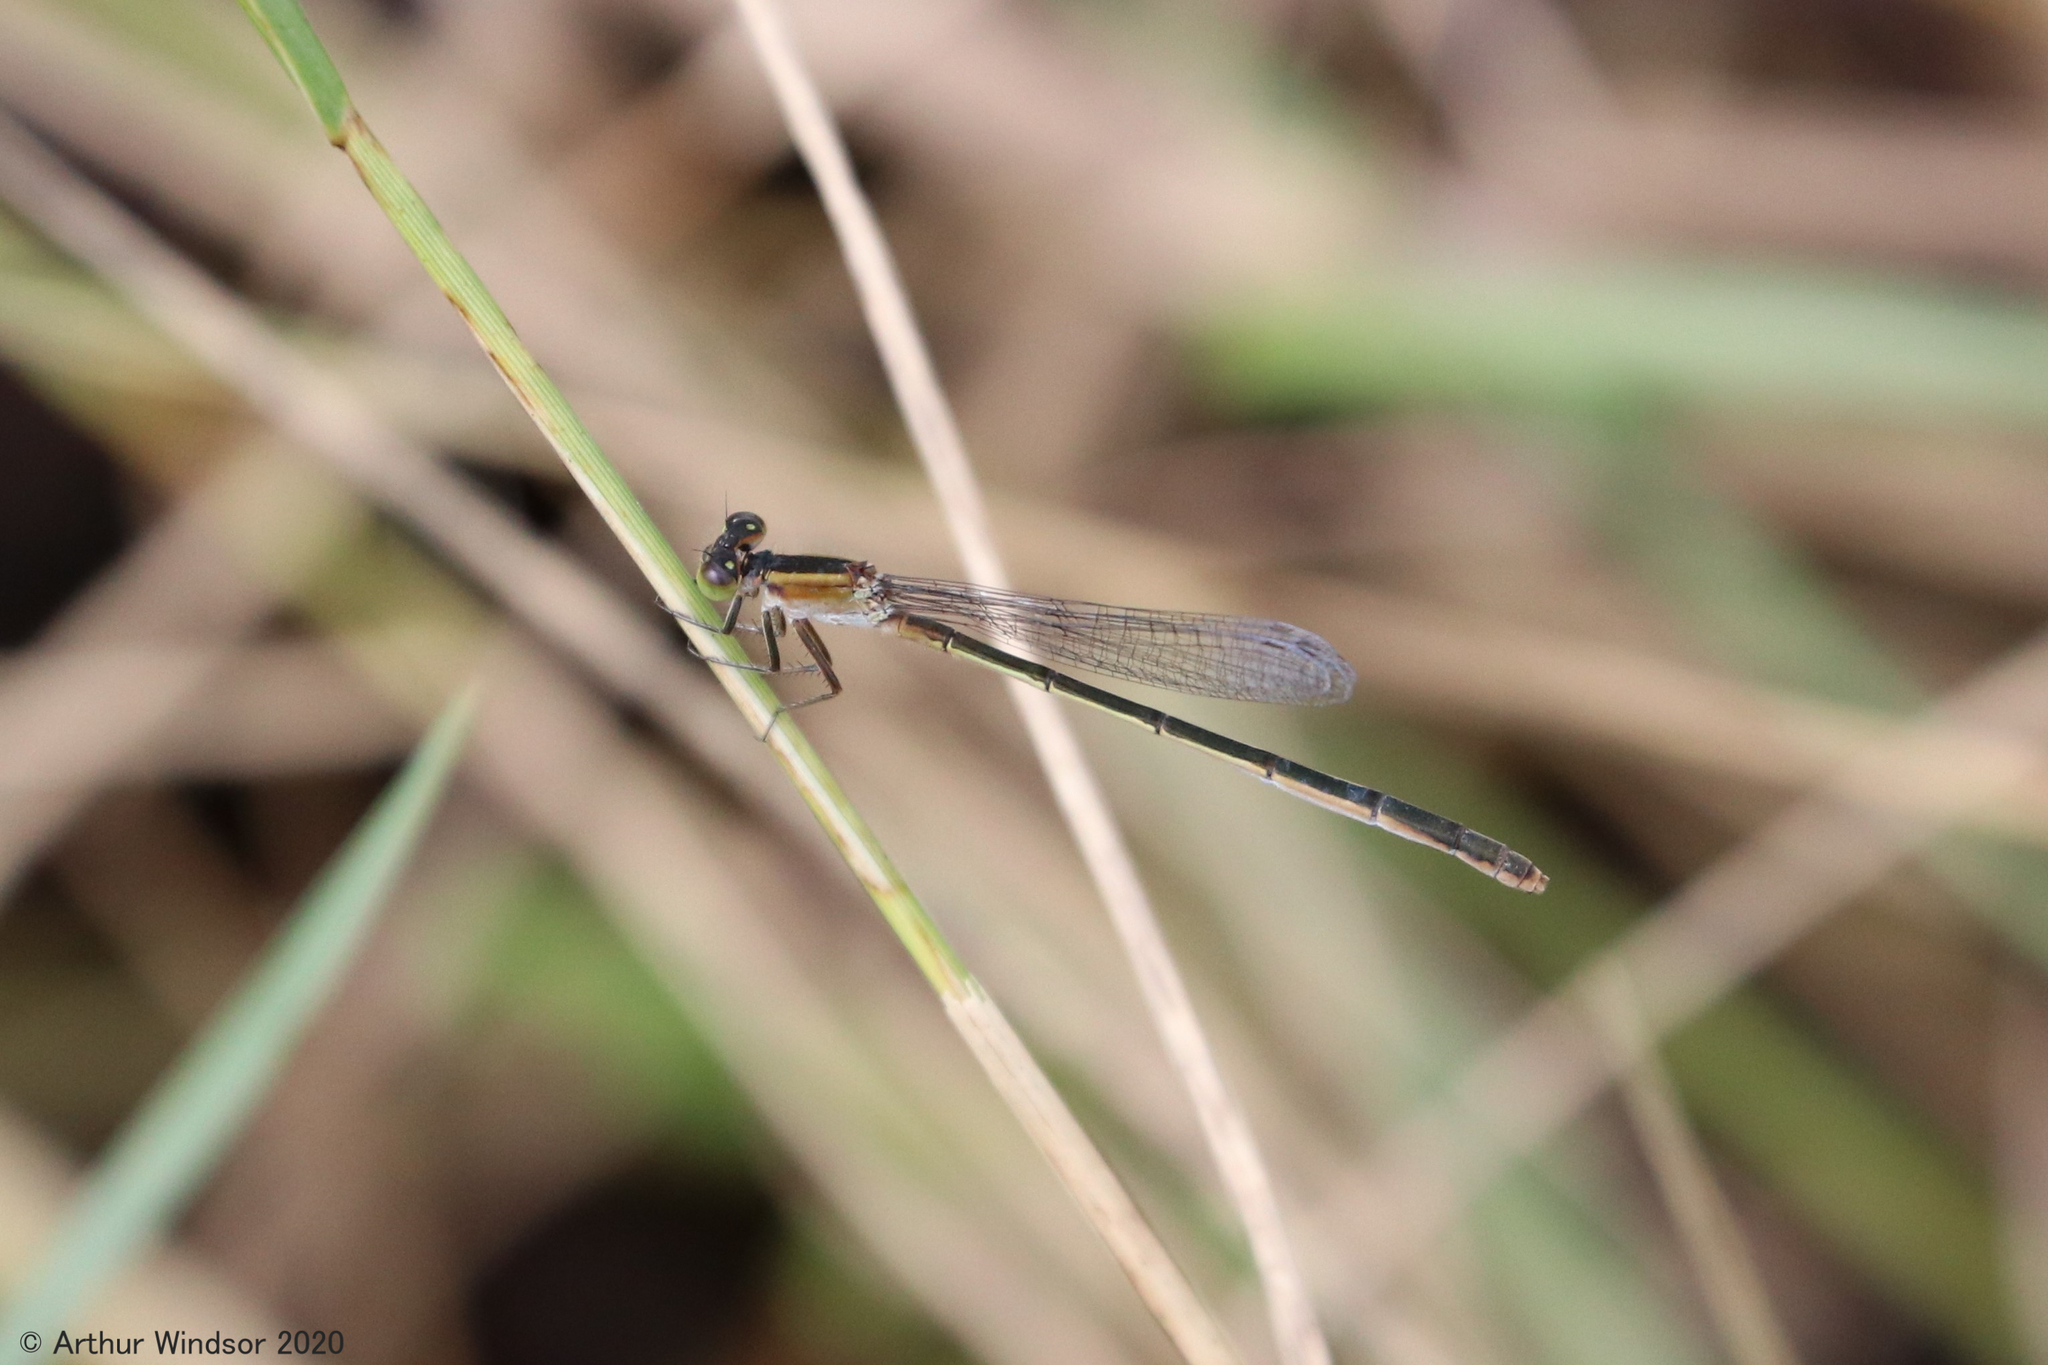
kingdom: Animalia
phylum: Arthropoda
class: Insecta
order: Odonata
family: Coenagrionidae
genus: Ischnura
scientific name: Ischnura ramburii
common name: Rambur's forktail
